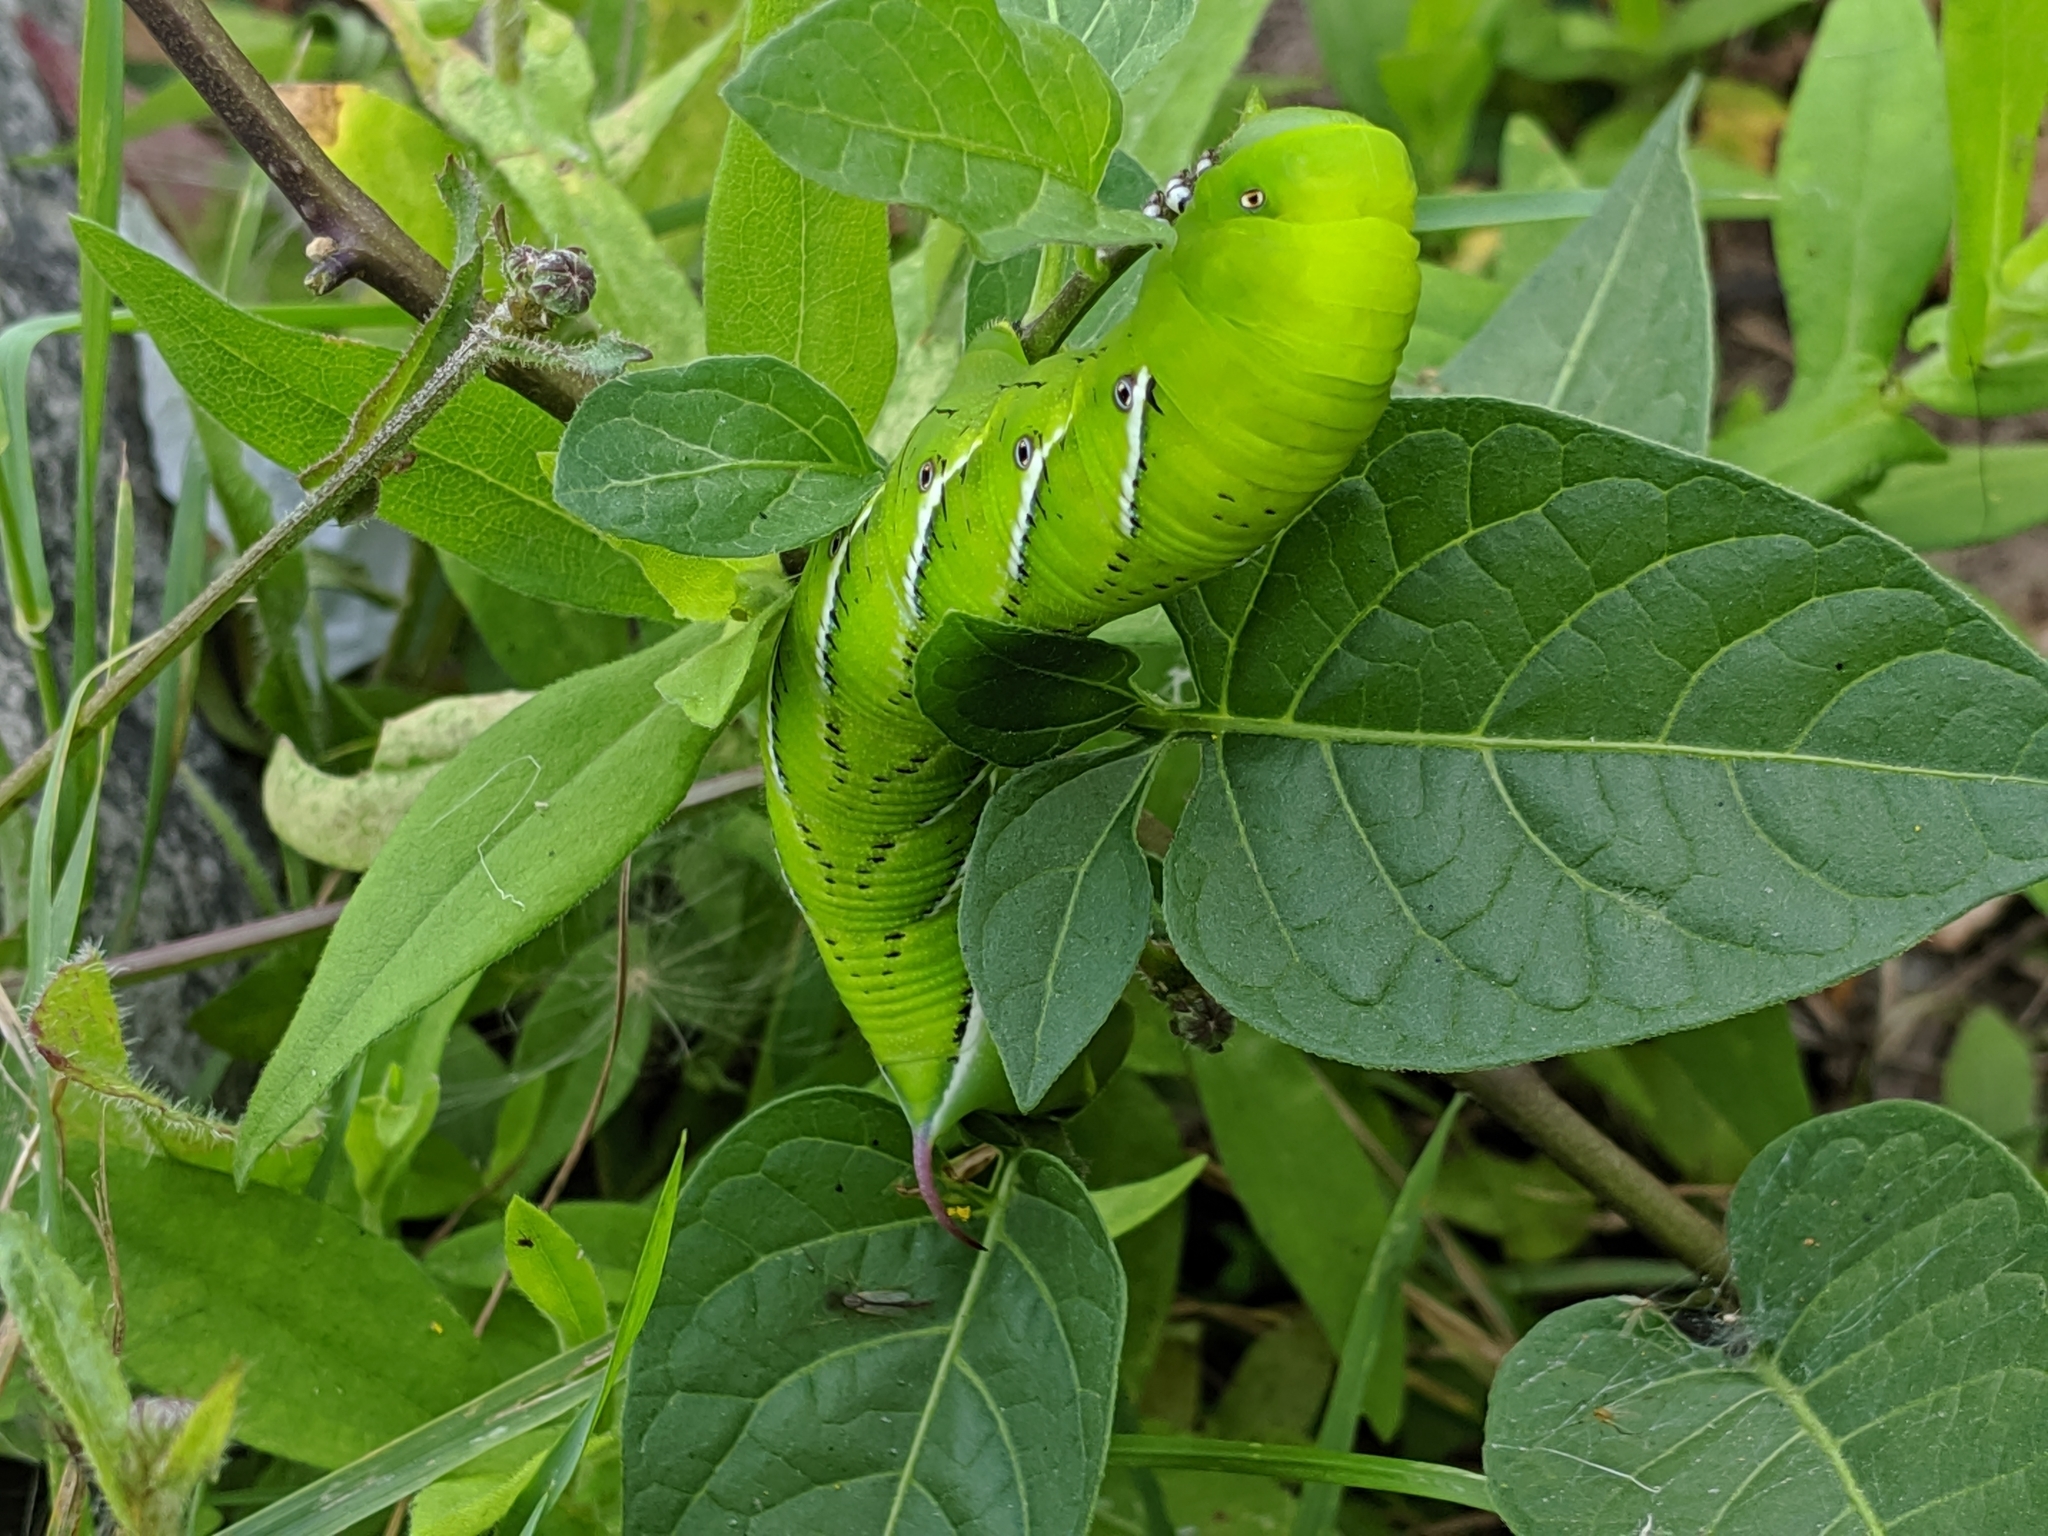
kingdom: Animalia
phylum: Arthropoda
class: Insecta
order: Lepidoptera
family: Sphingidae
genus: Manduca
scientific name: Manduca sexta
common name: Carolina sphinx
